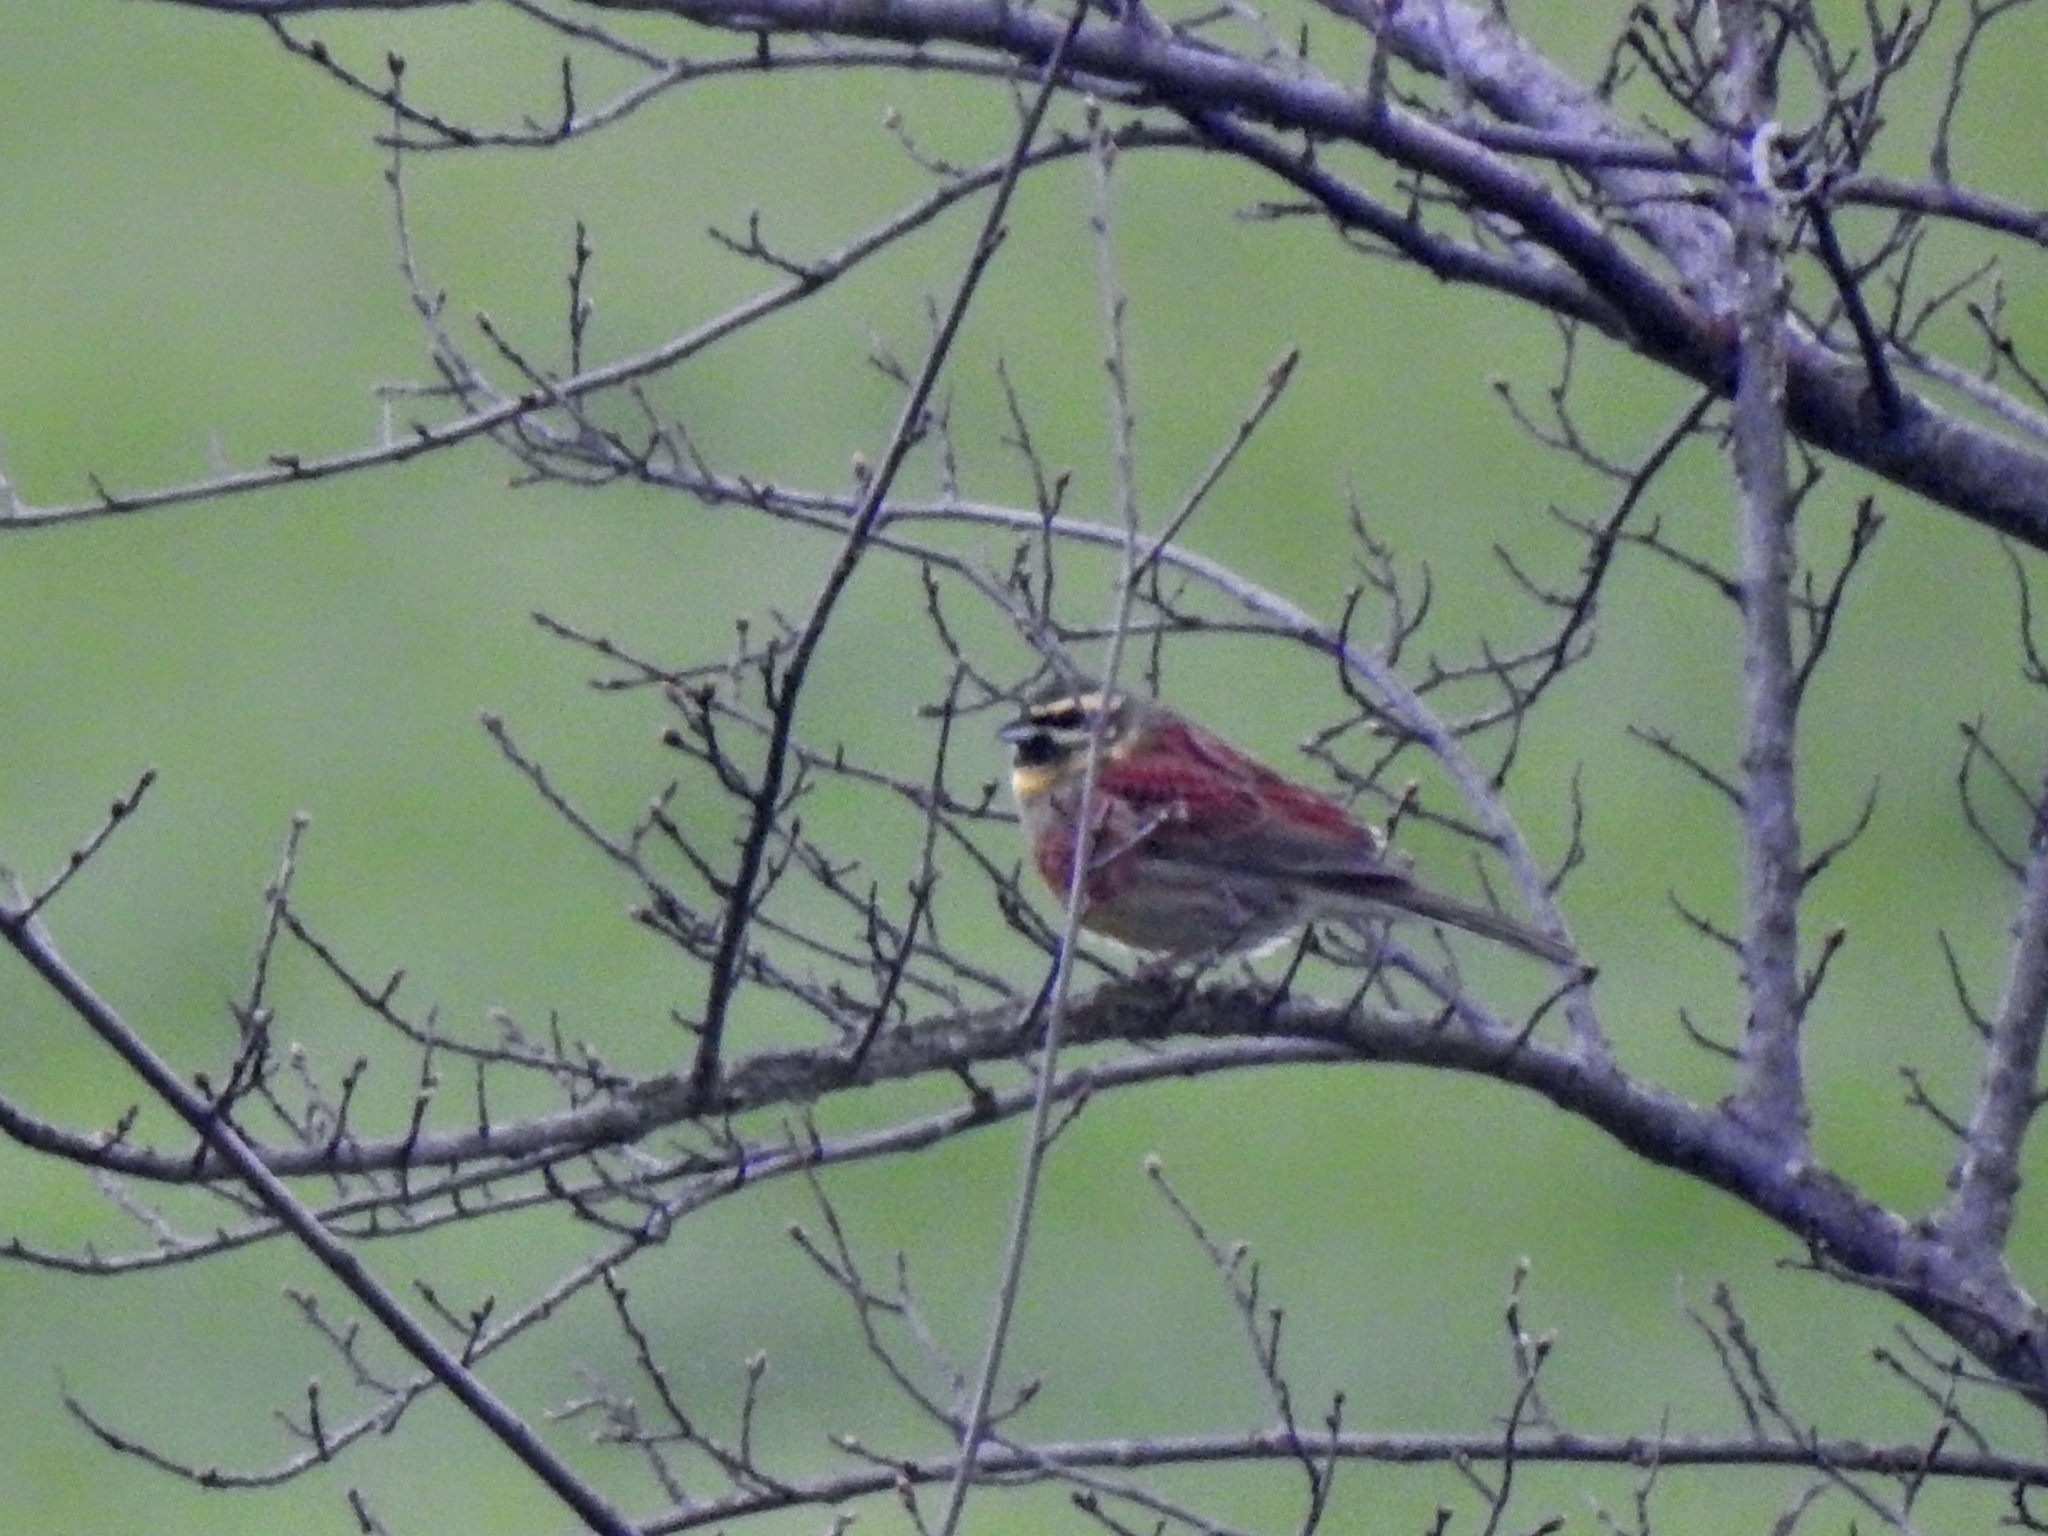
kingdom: Animalia
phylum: Chordata
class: Aves
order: Passeriformes
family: Emberizidae
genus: Emberiza
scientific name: Emberiza cirlus
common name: Cirl bunting
